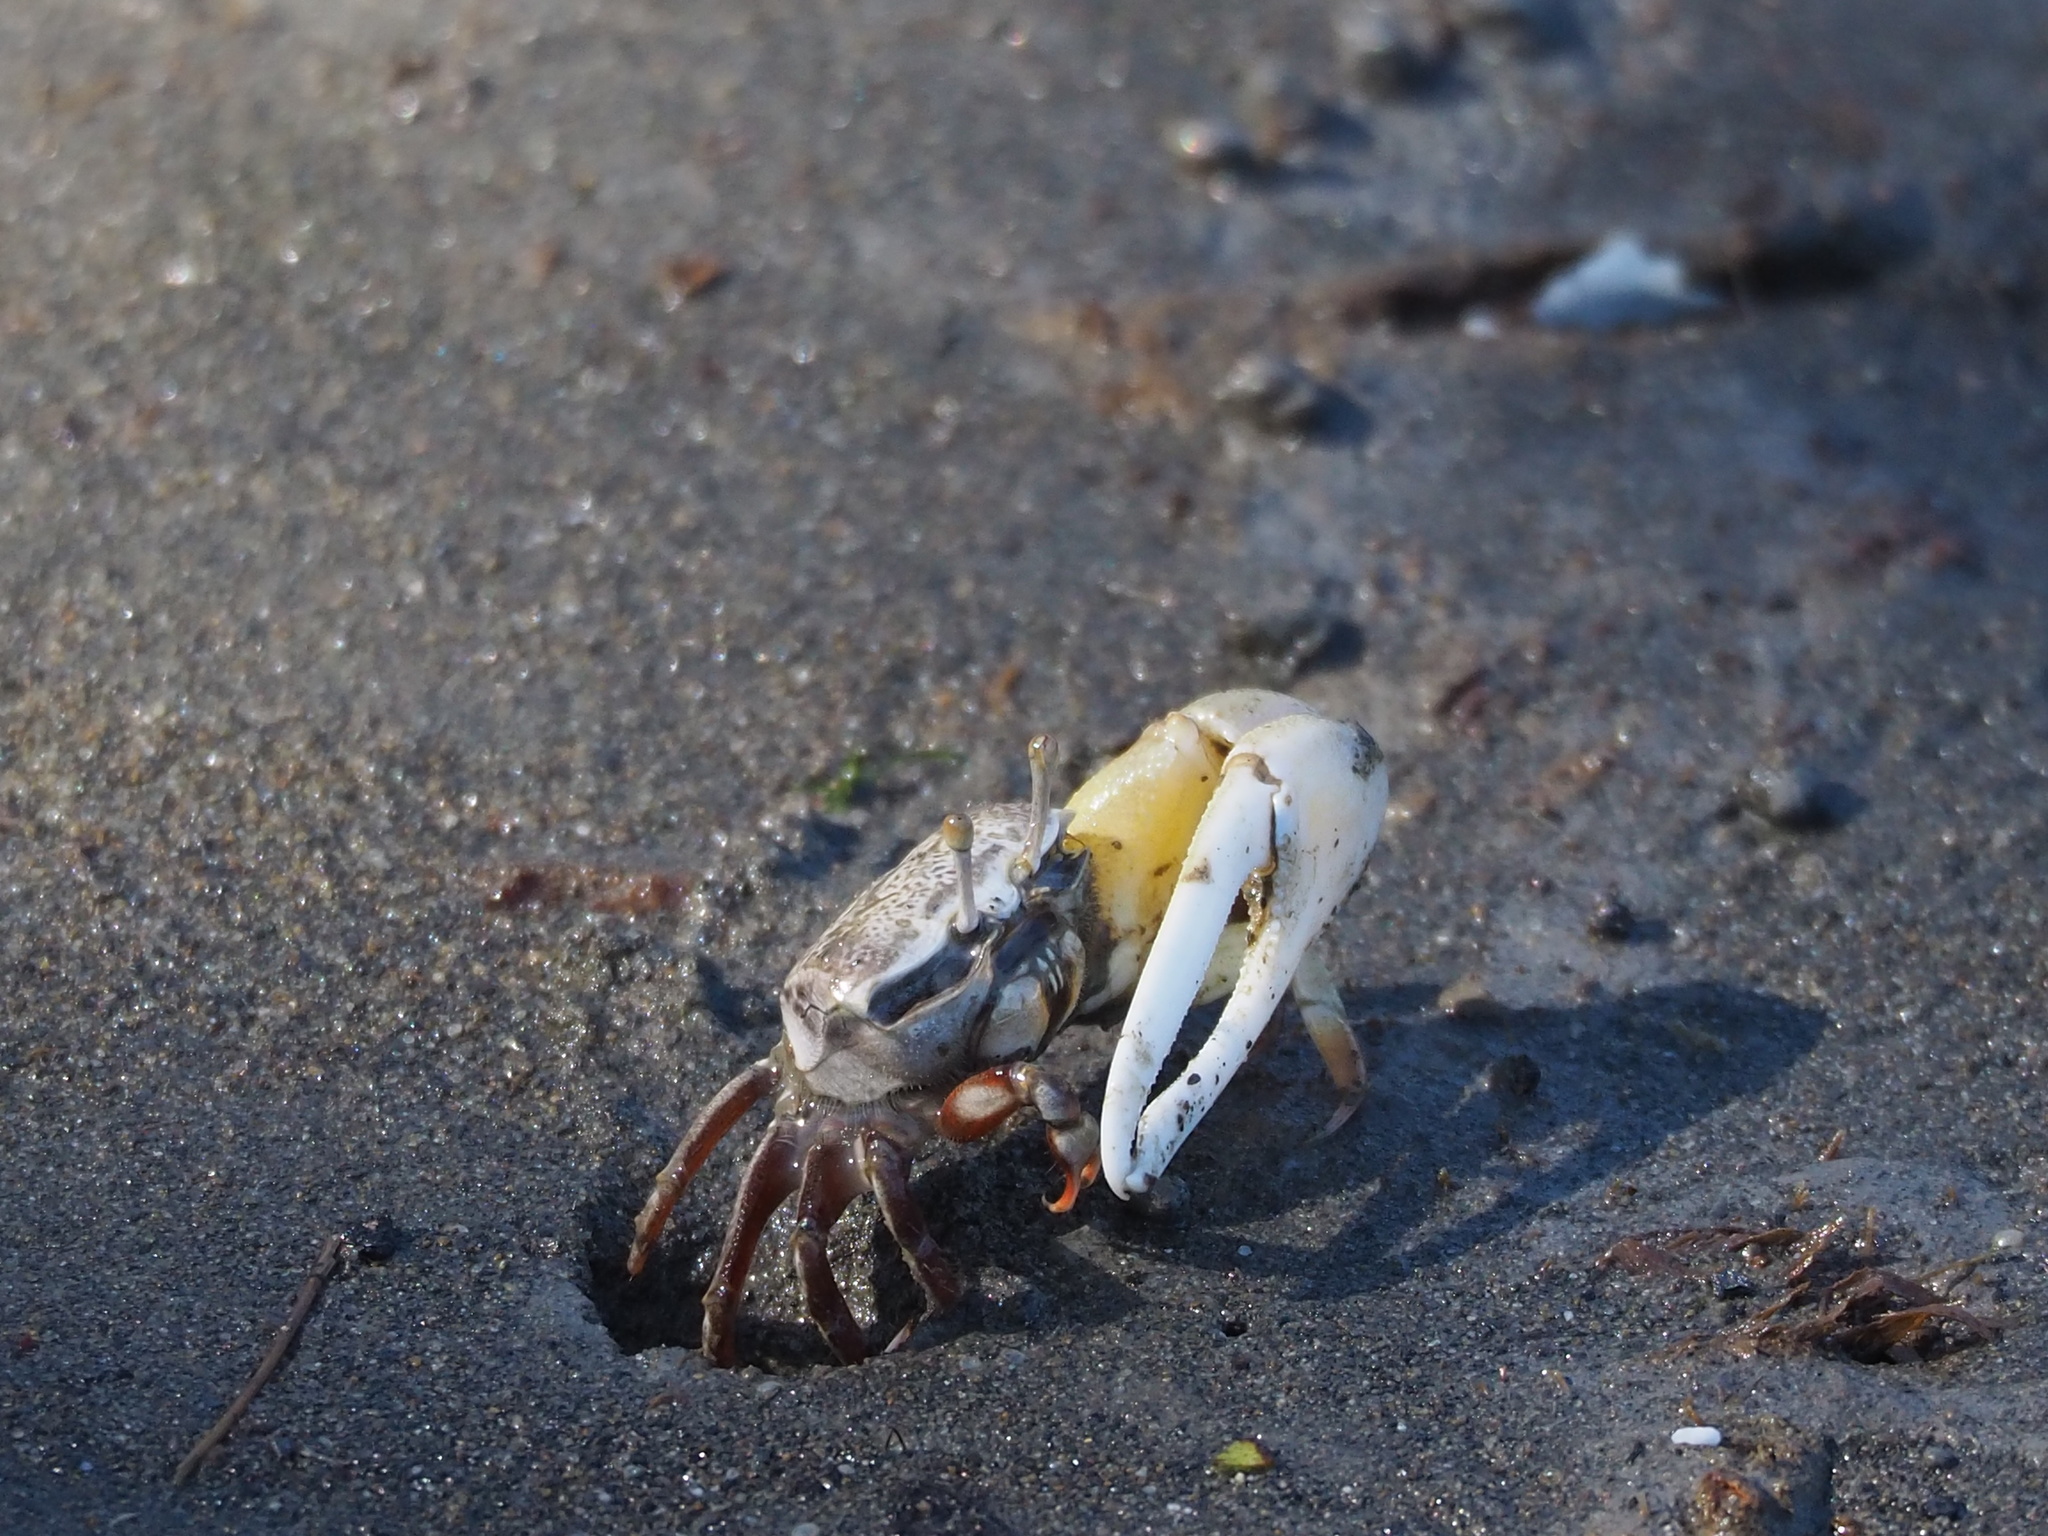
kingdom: Animalia
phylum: Arthropoda
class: Malacostraca
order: Decapoda
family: Ocypodidae
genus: Austruca
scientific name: Austruca lactea
